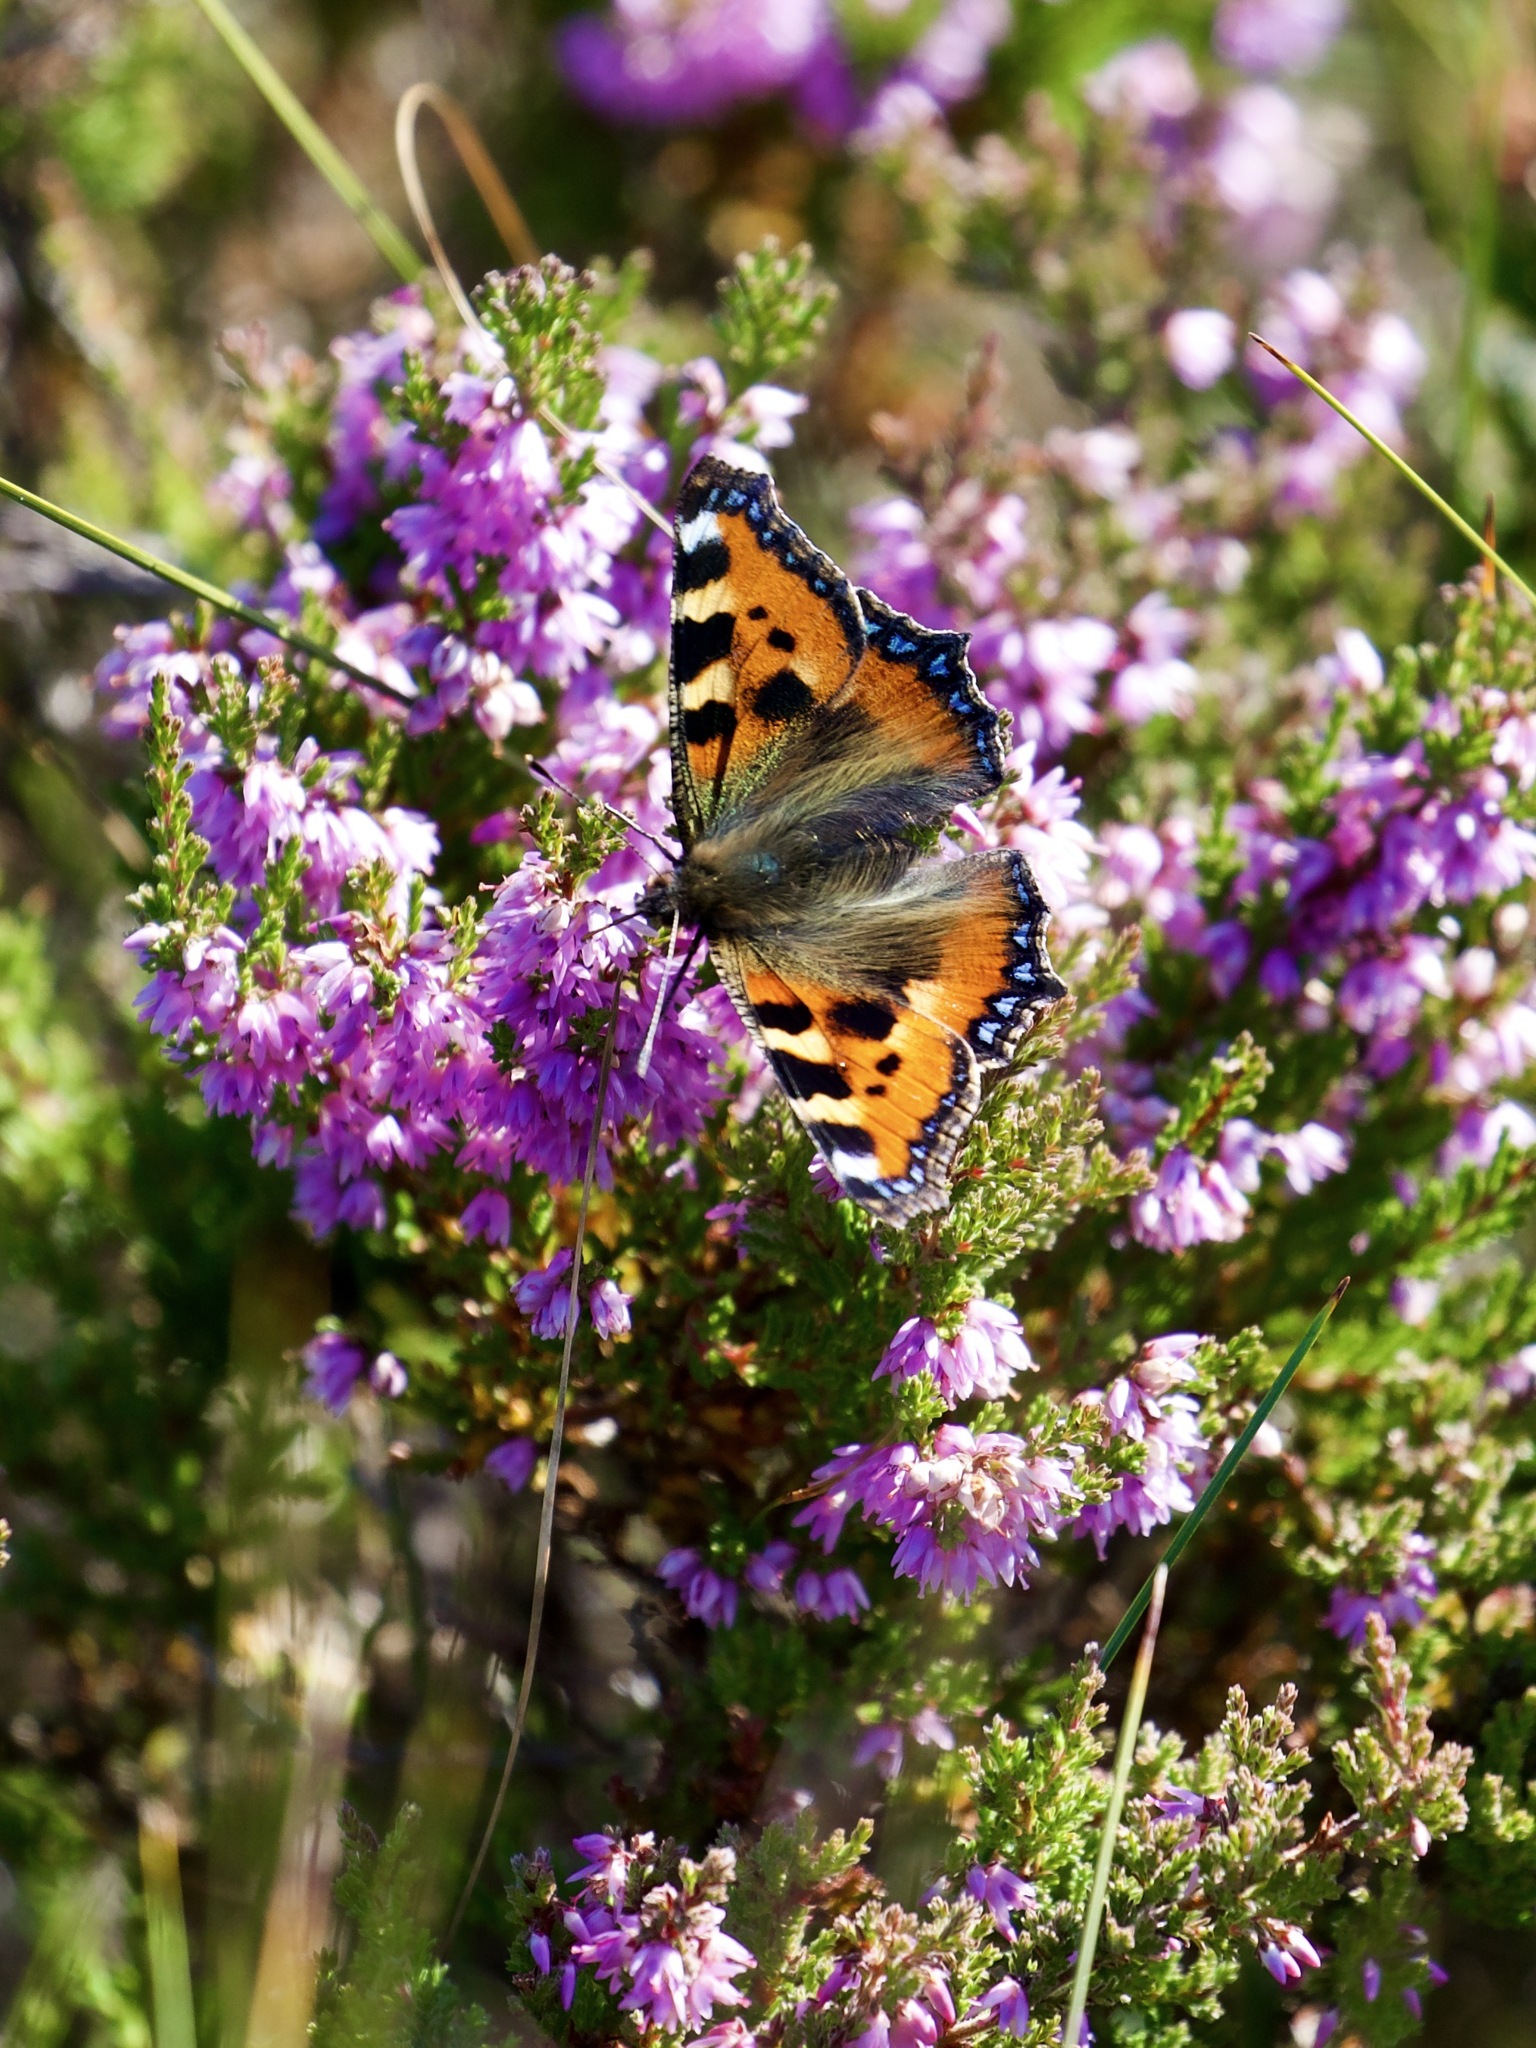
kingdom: Animalia
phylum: Arthropoda
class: Insecta
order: Lepidoptera
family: Nymphalidae
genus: Aglais
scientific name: Aglais urticae
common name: Small tortoiseshell
